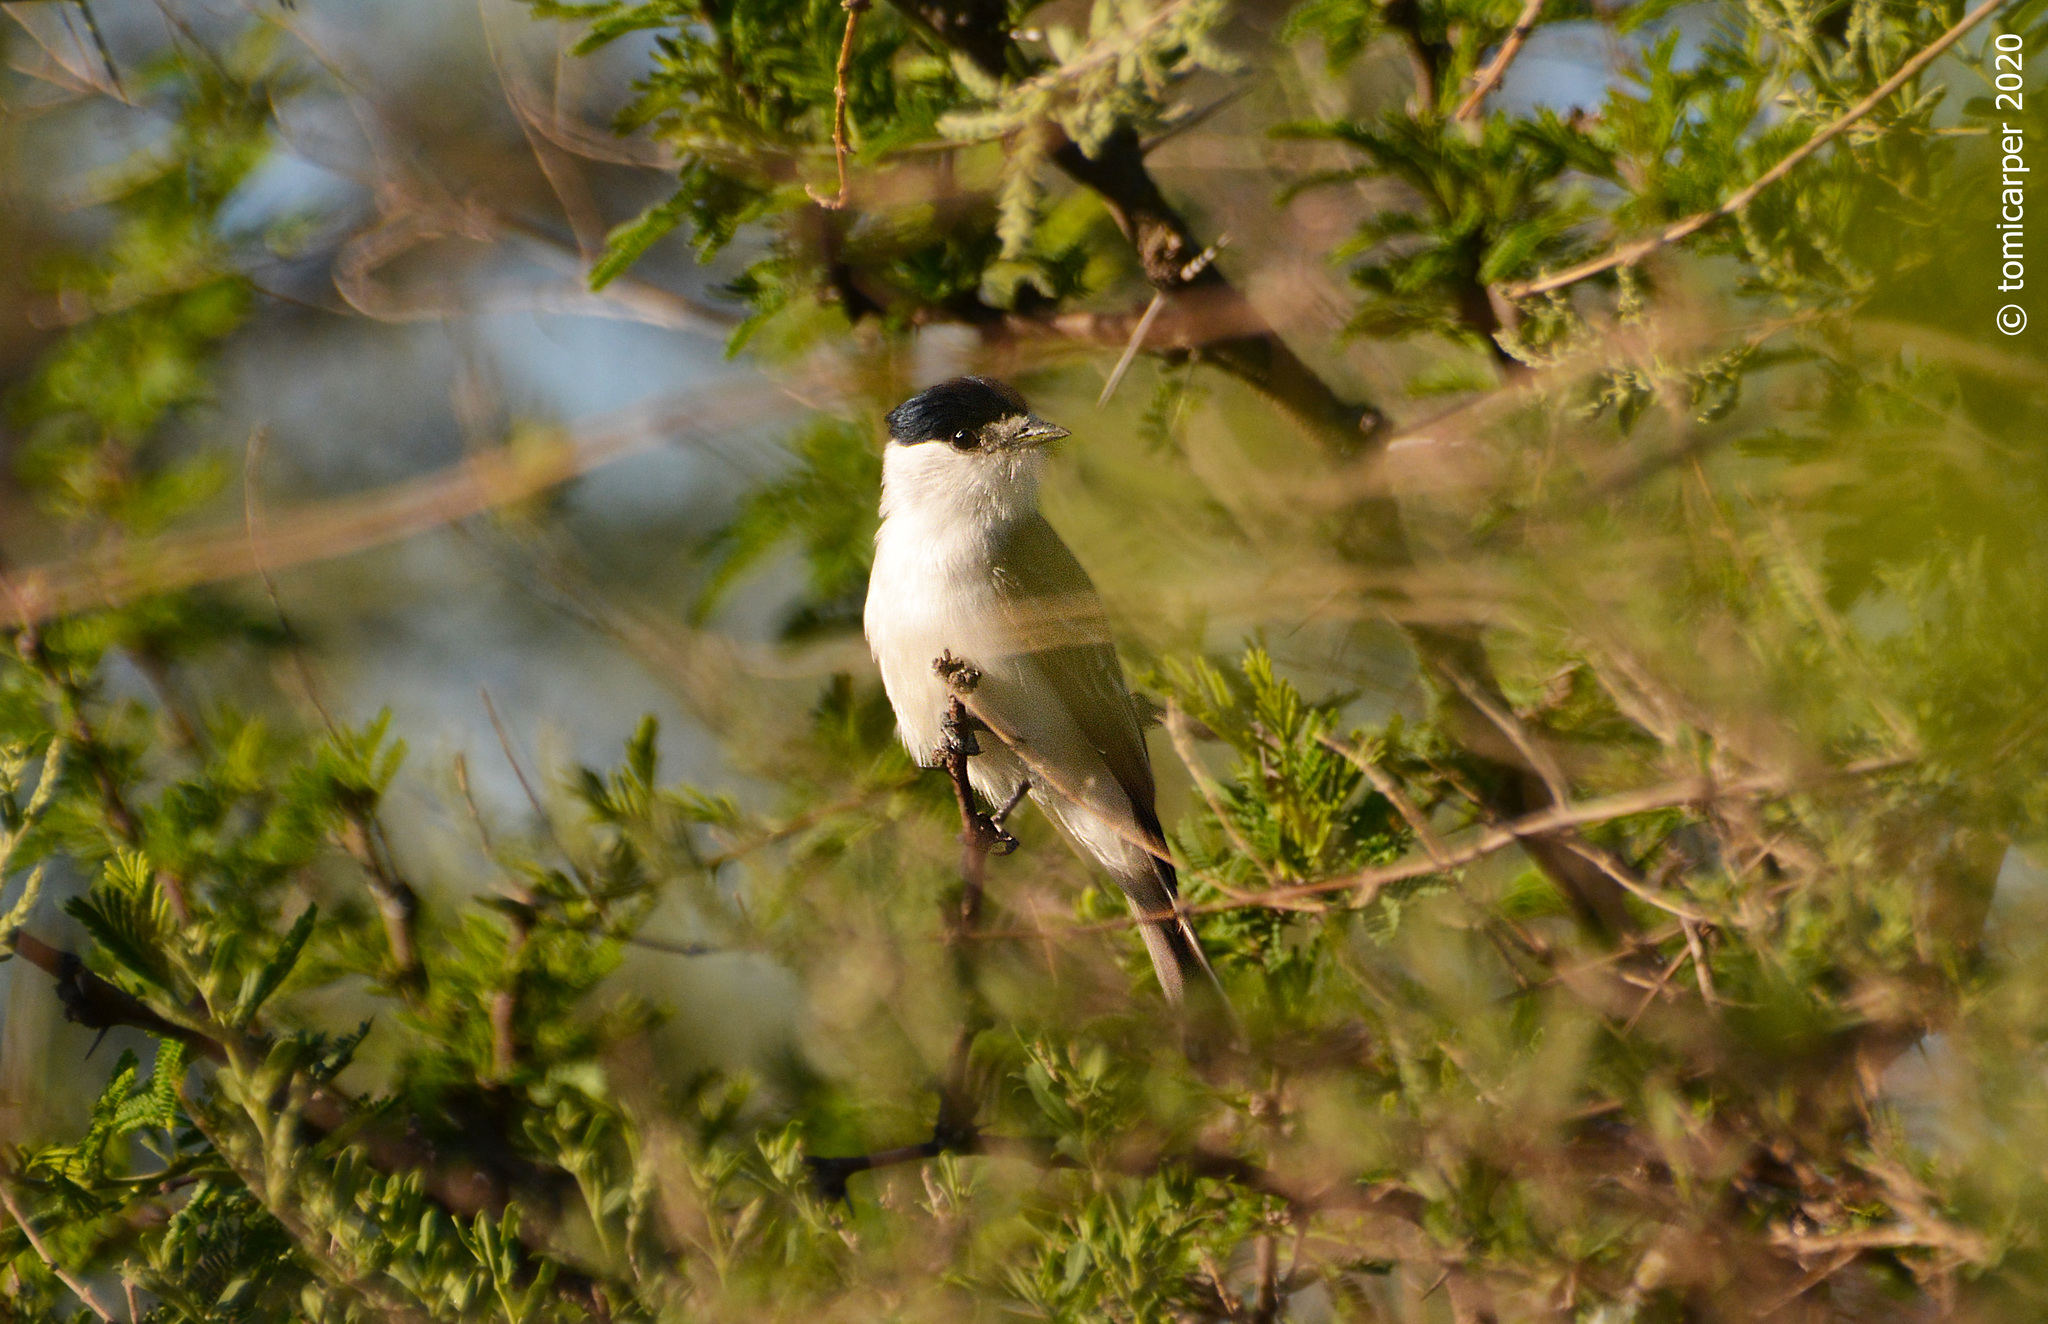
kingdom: Animalia
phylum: Chordata
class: Aves
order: Passeriformes
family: Cotingidae
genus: Xenopsaris
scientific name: Xenopsaris albinucha
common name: White-naped xenopsaris
